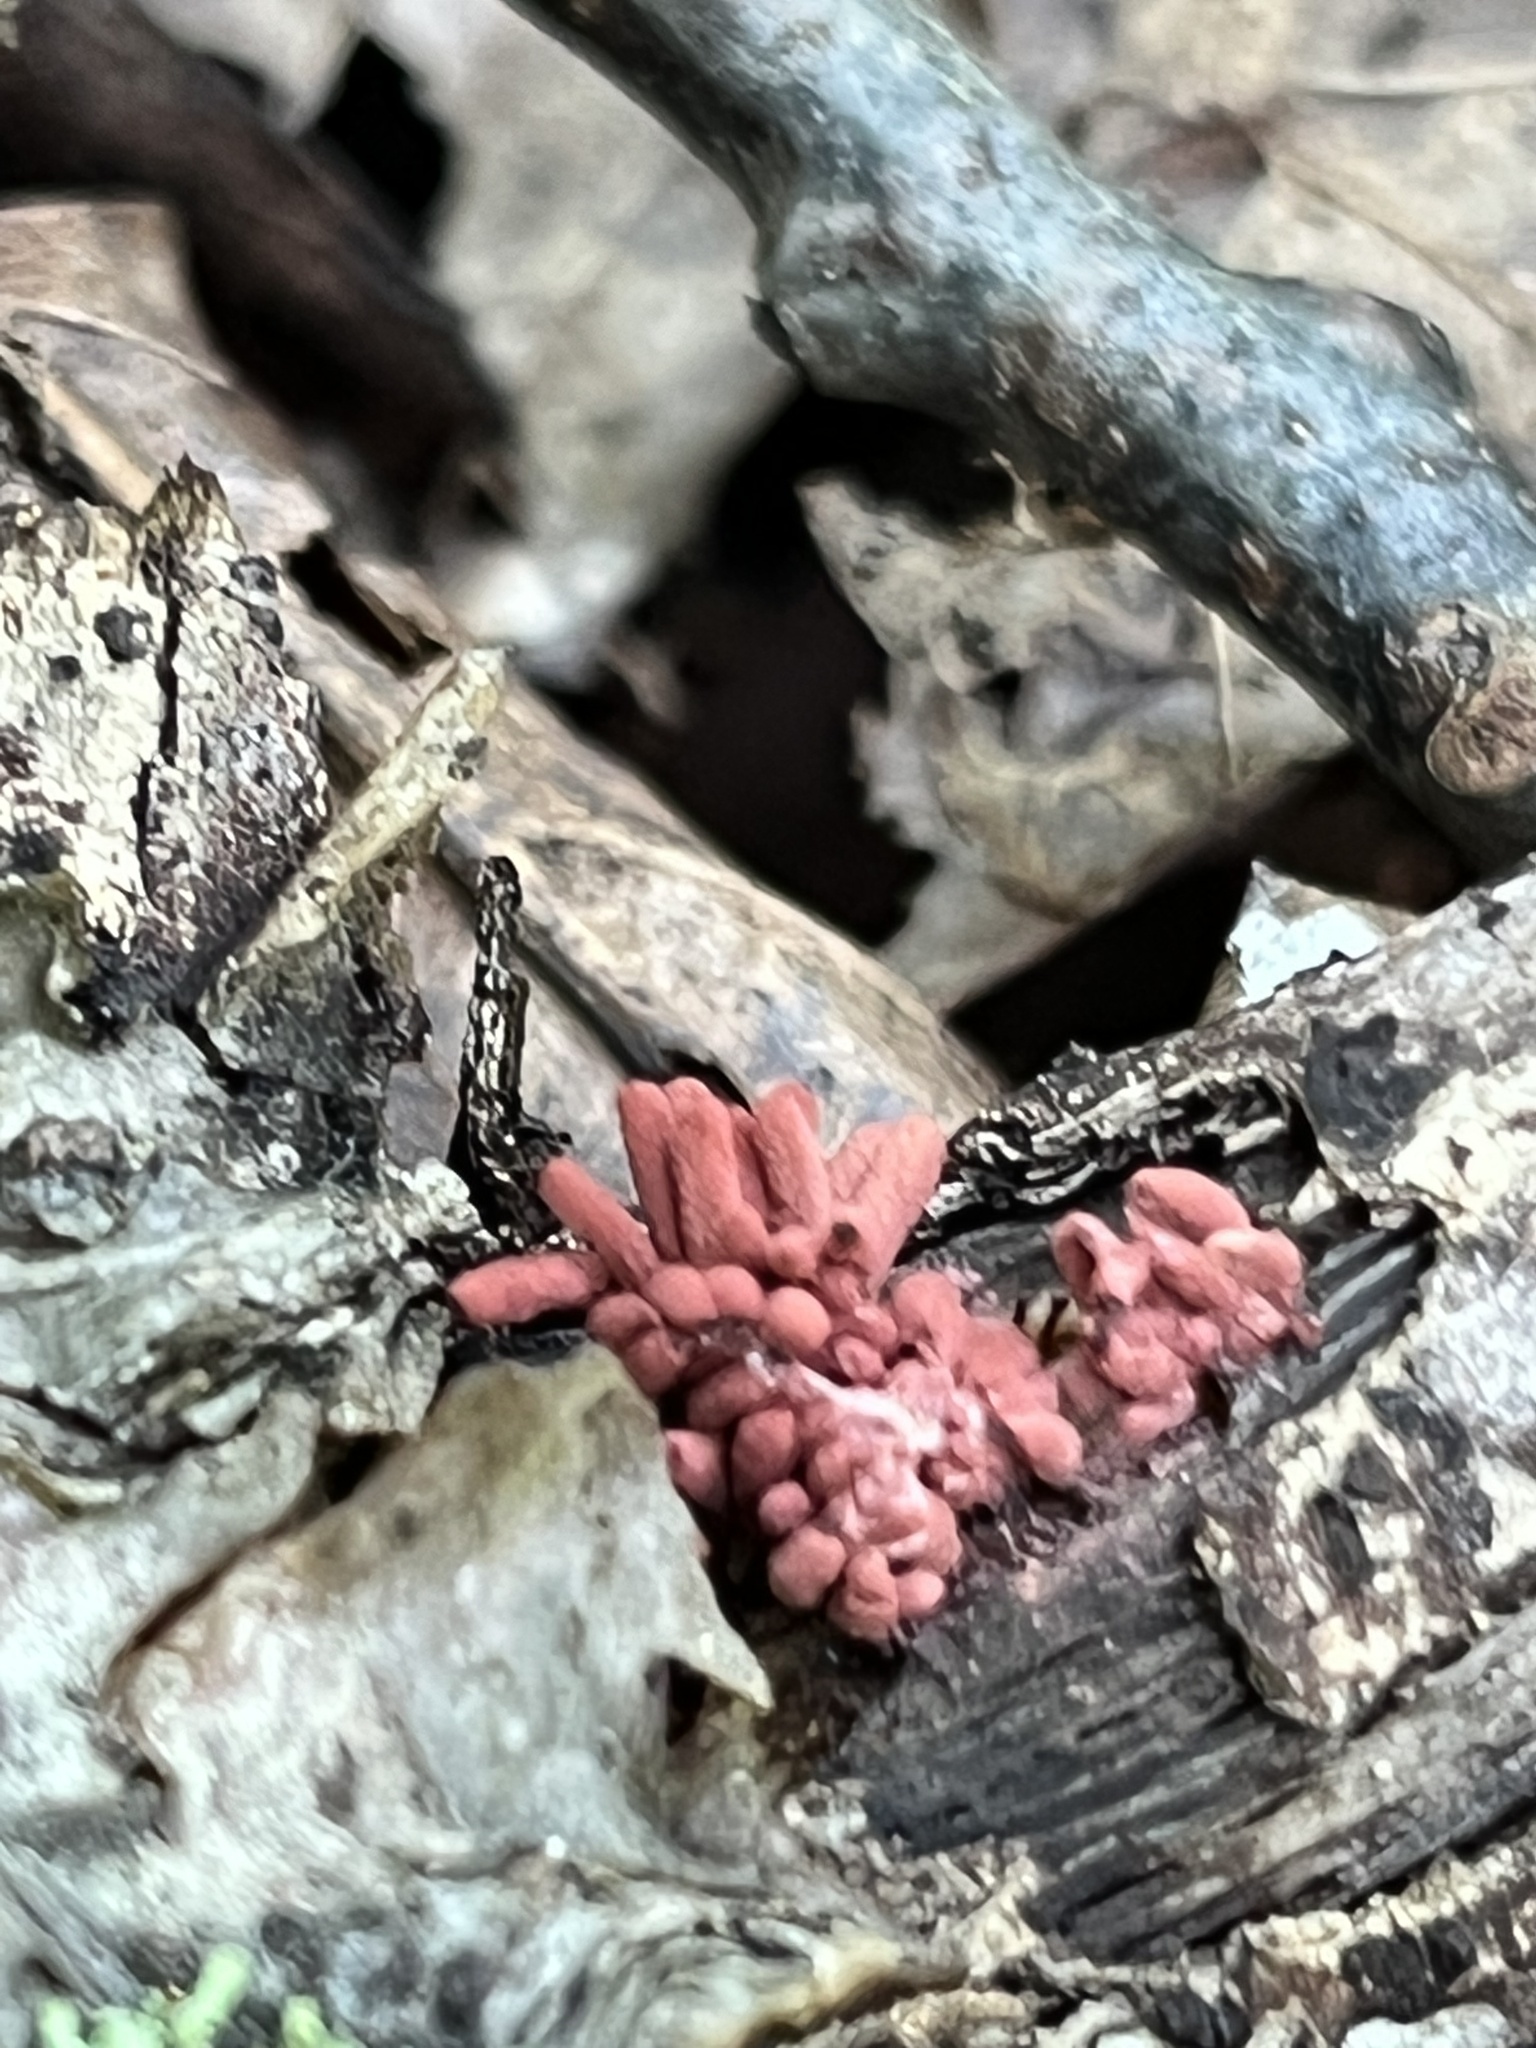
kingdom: Protozoa
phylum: Mycetozoa
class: Myxomycetes
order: Trichiales
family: Arcyriaceae
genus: Arcyria
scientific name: Arcyria denudata
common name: Carnival candy slime mold
